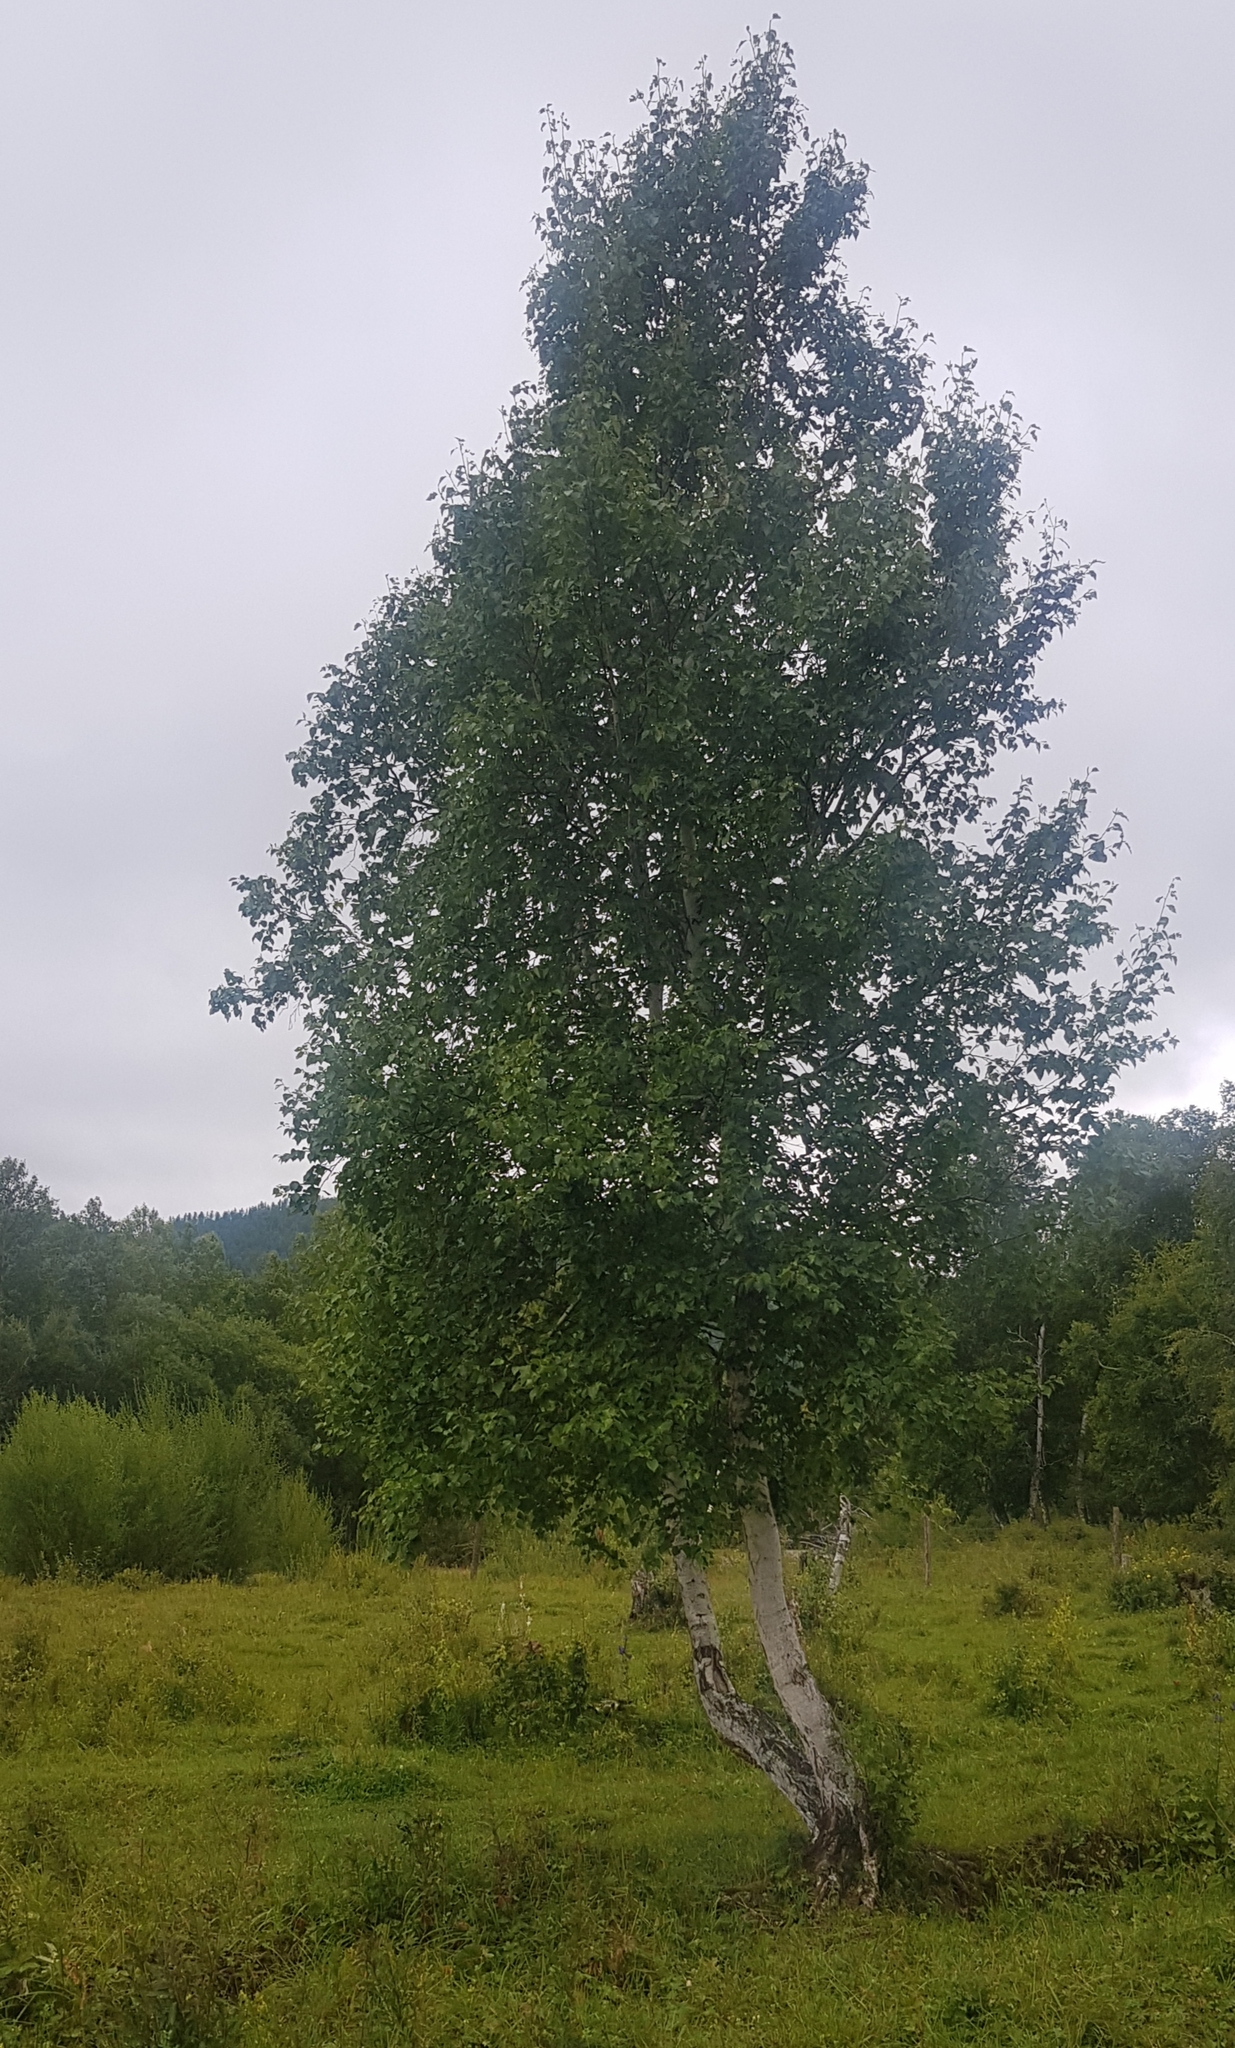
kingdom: Plantae
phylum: Tracheophyta
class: Magnoliopsida
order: Fagales
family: Betulaceae
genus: Betula
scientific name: Betula pendula
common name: Silver birch
